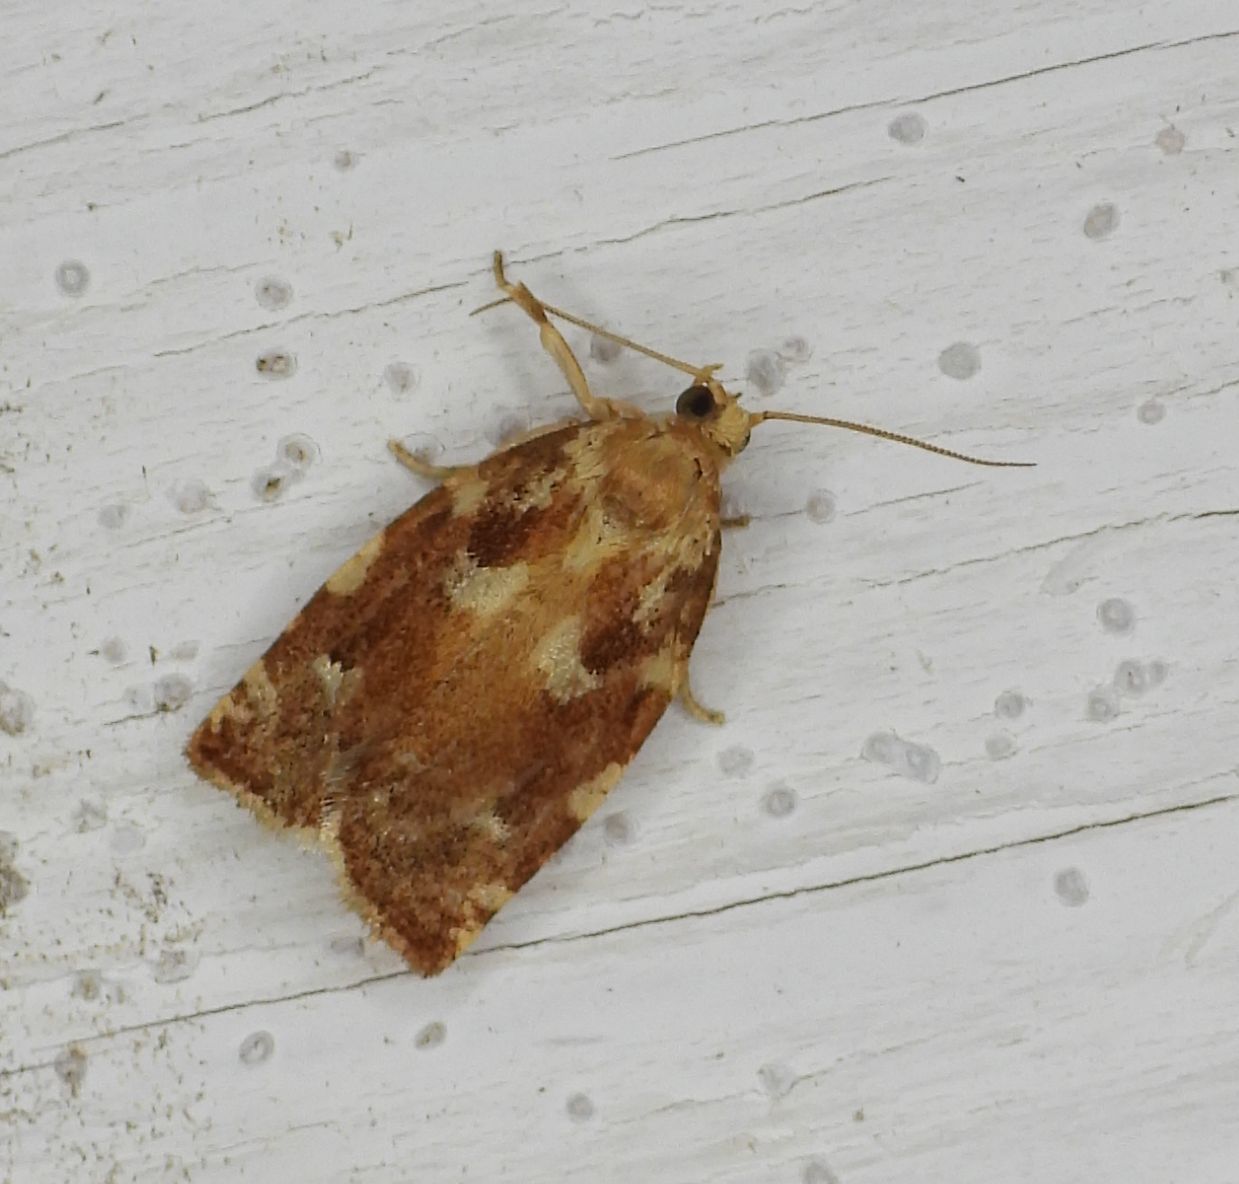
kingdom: Animalia
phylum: Arthropoda
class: Insecta
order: Lepidoptera
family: Tortricidae
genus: Archips
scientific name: Archips semiferanus
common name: Oak leafroller
